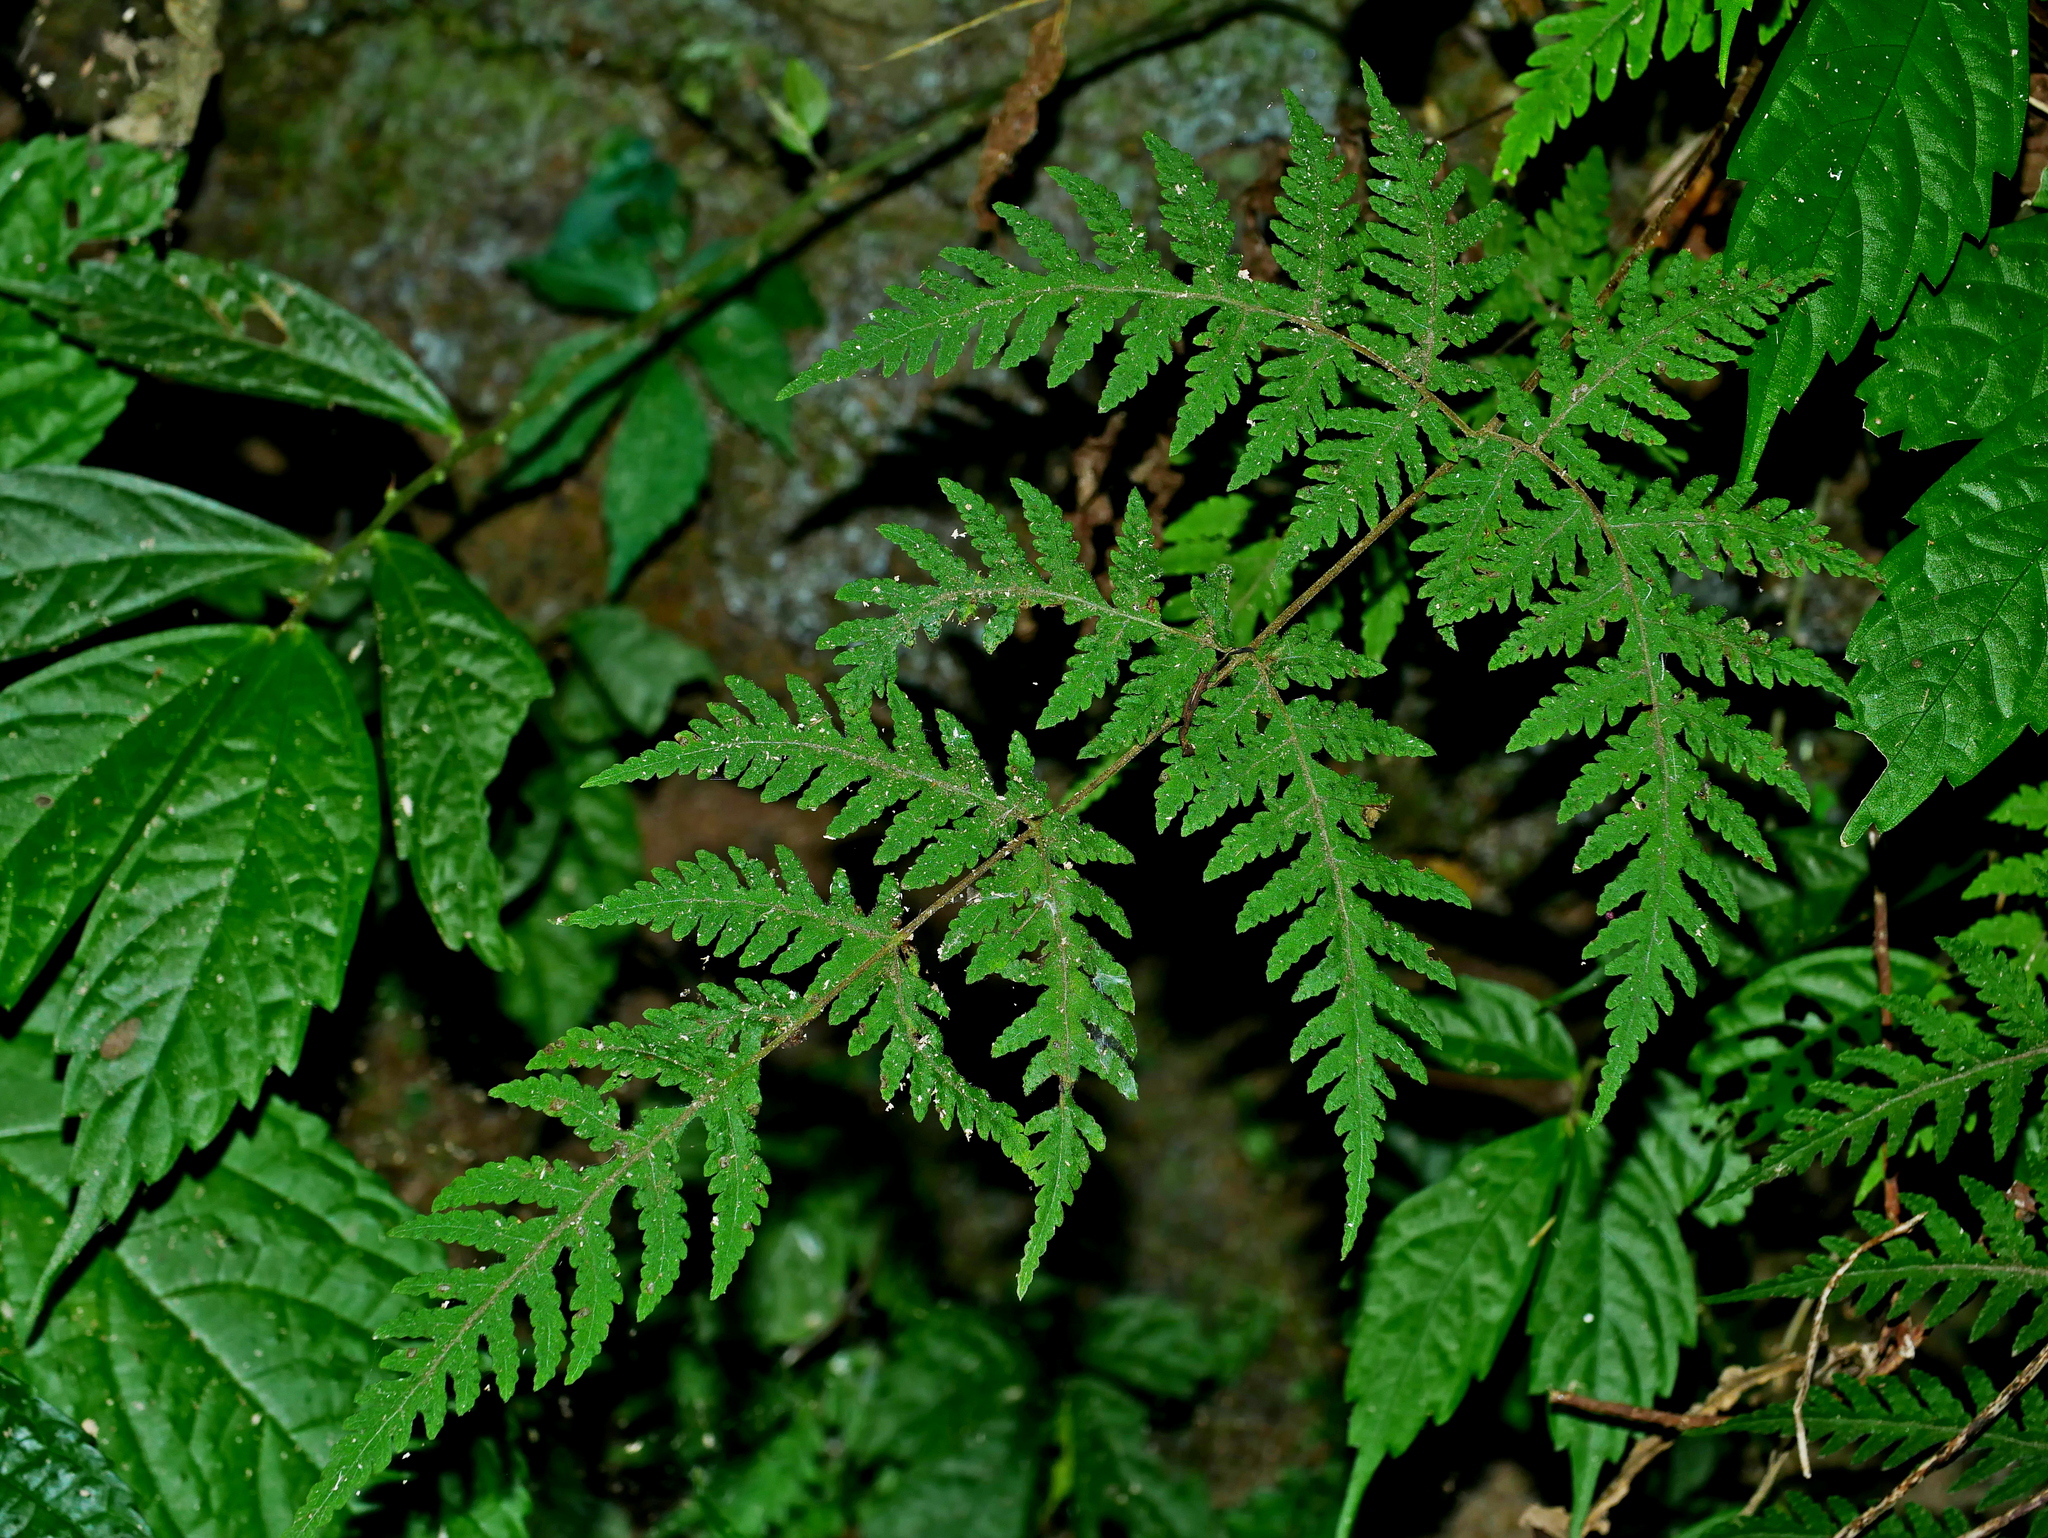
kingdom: Plantae
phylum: Tracheophyta
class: Polypodiopsida
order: Polypodiales
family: Tectariaceae
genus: Tectaria
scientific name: Tectaria membranacea
